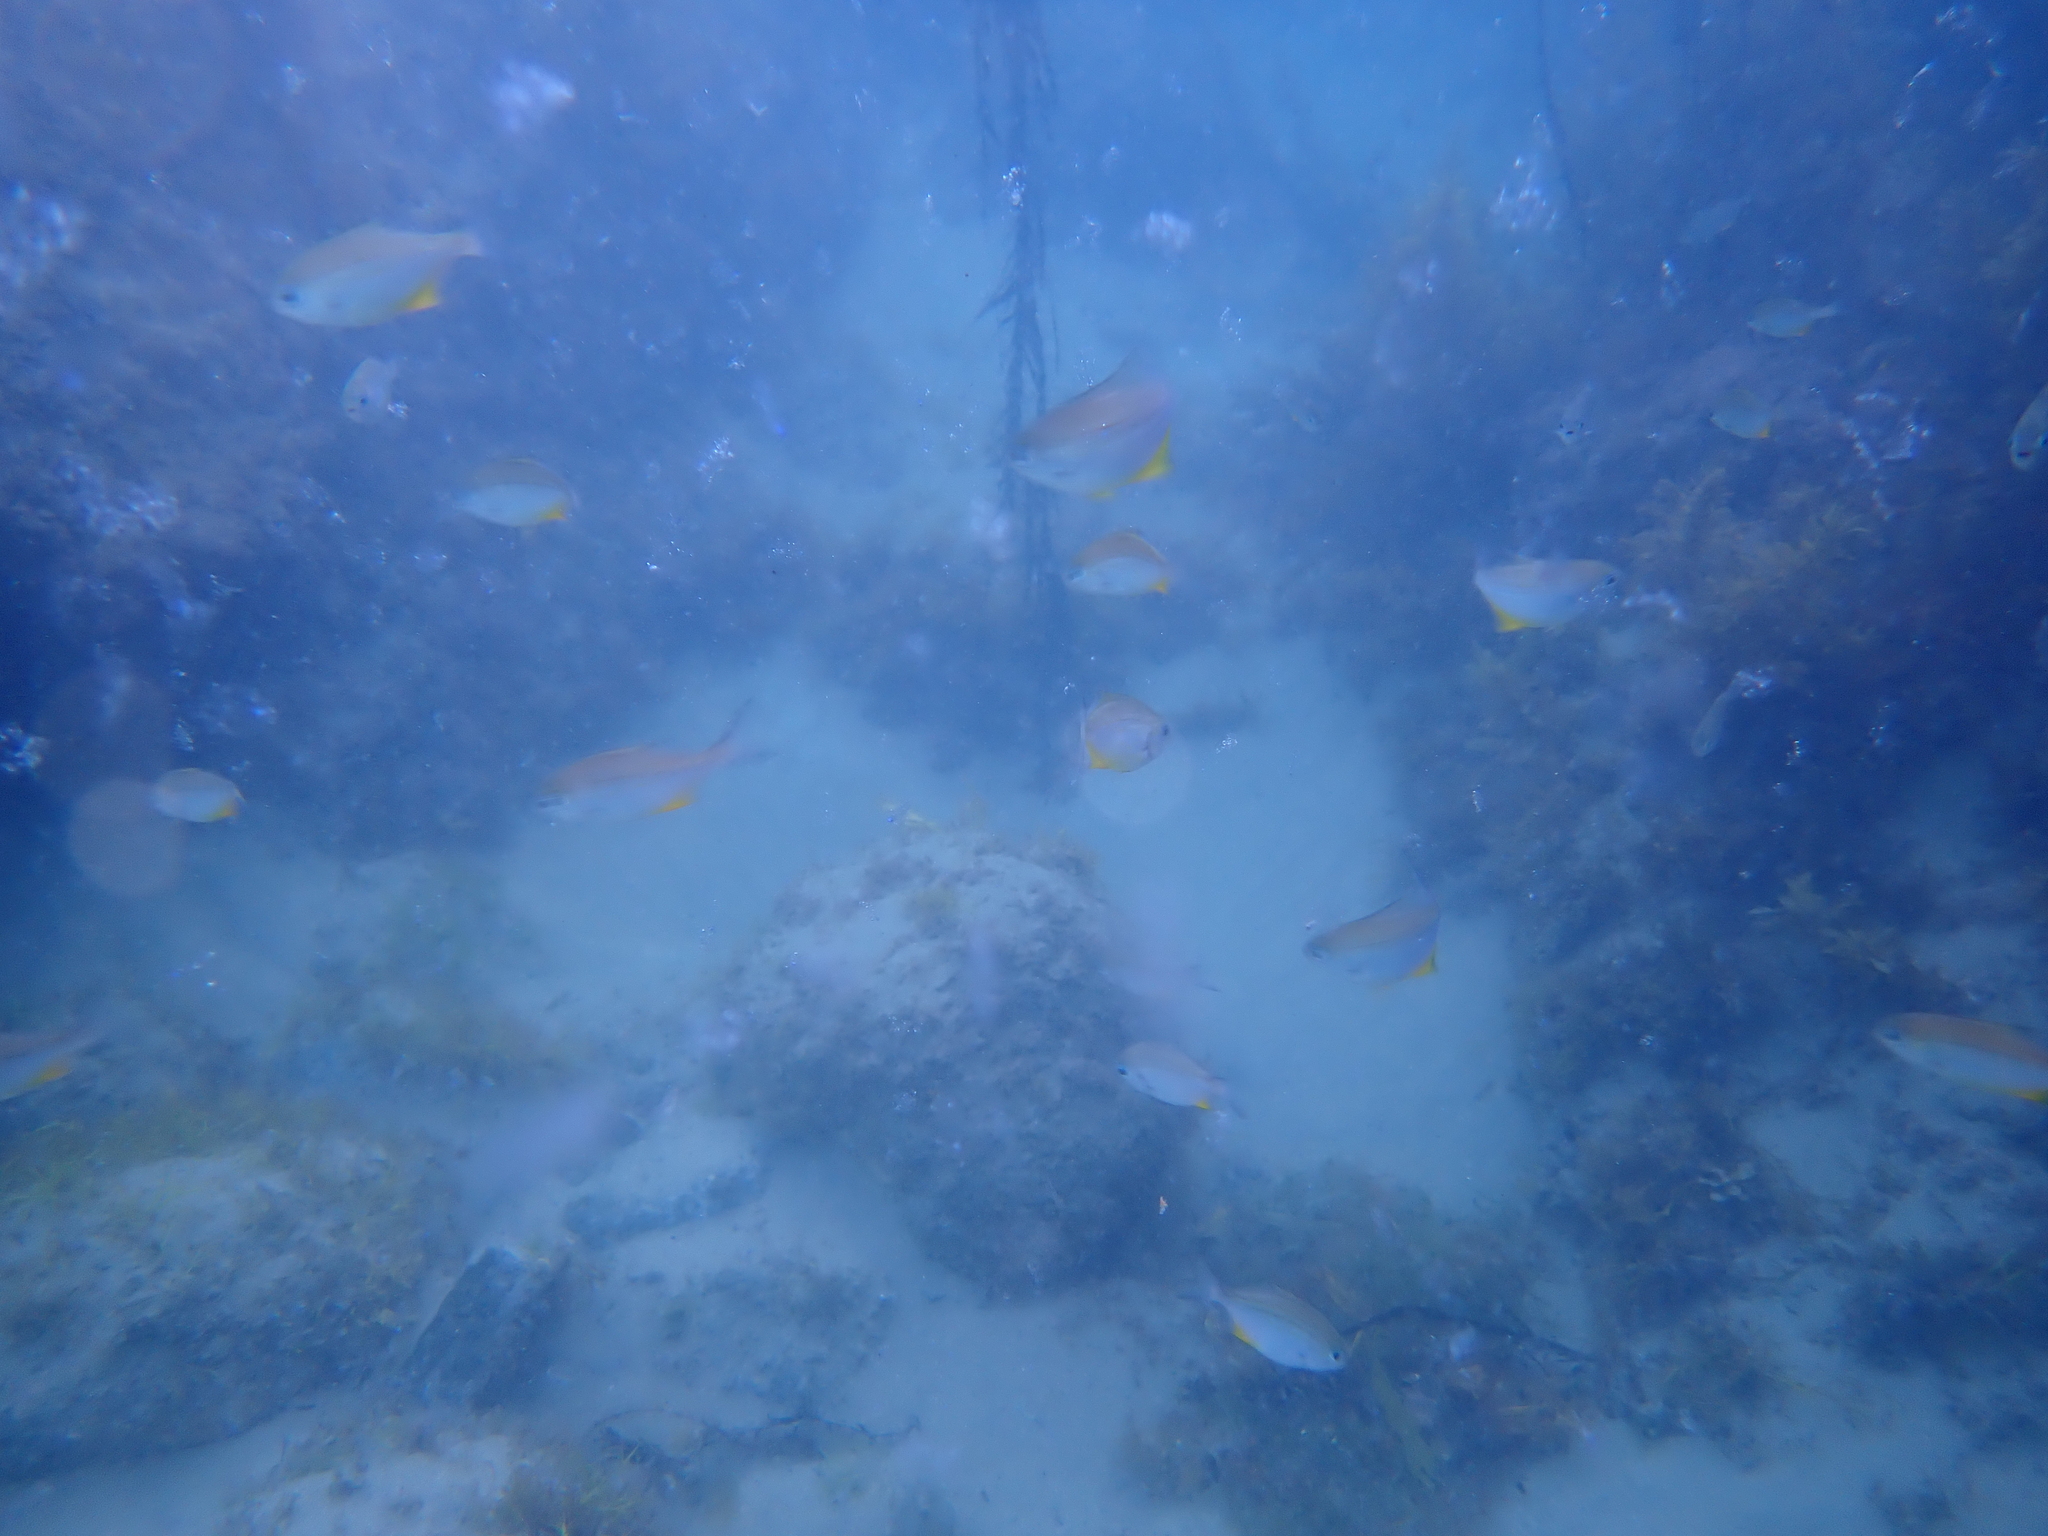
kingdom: Animalia
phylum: Chordata
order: Perciformes
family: Kyphosidae
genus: Scorpis
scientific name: Scorpis violacea
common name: Blue maomao
